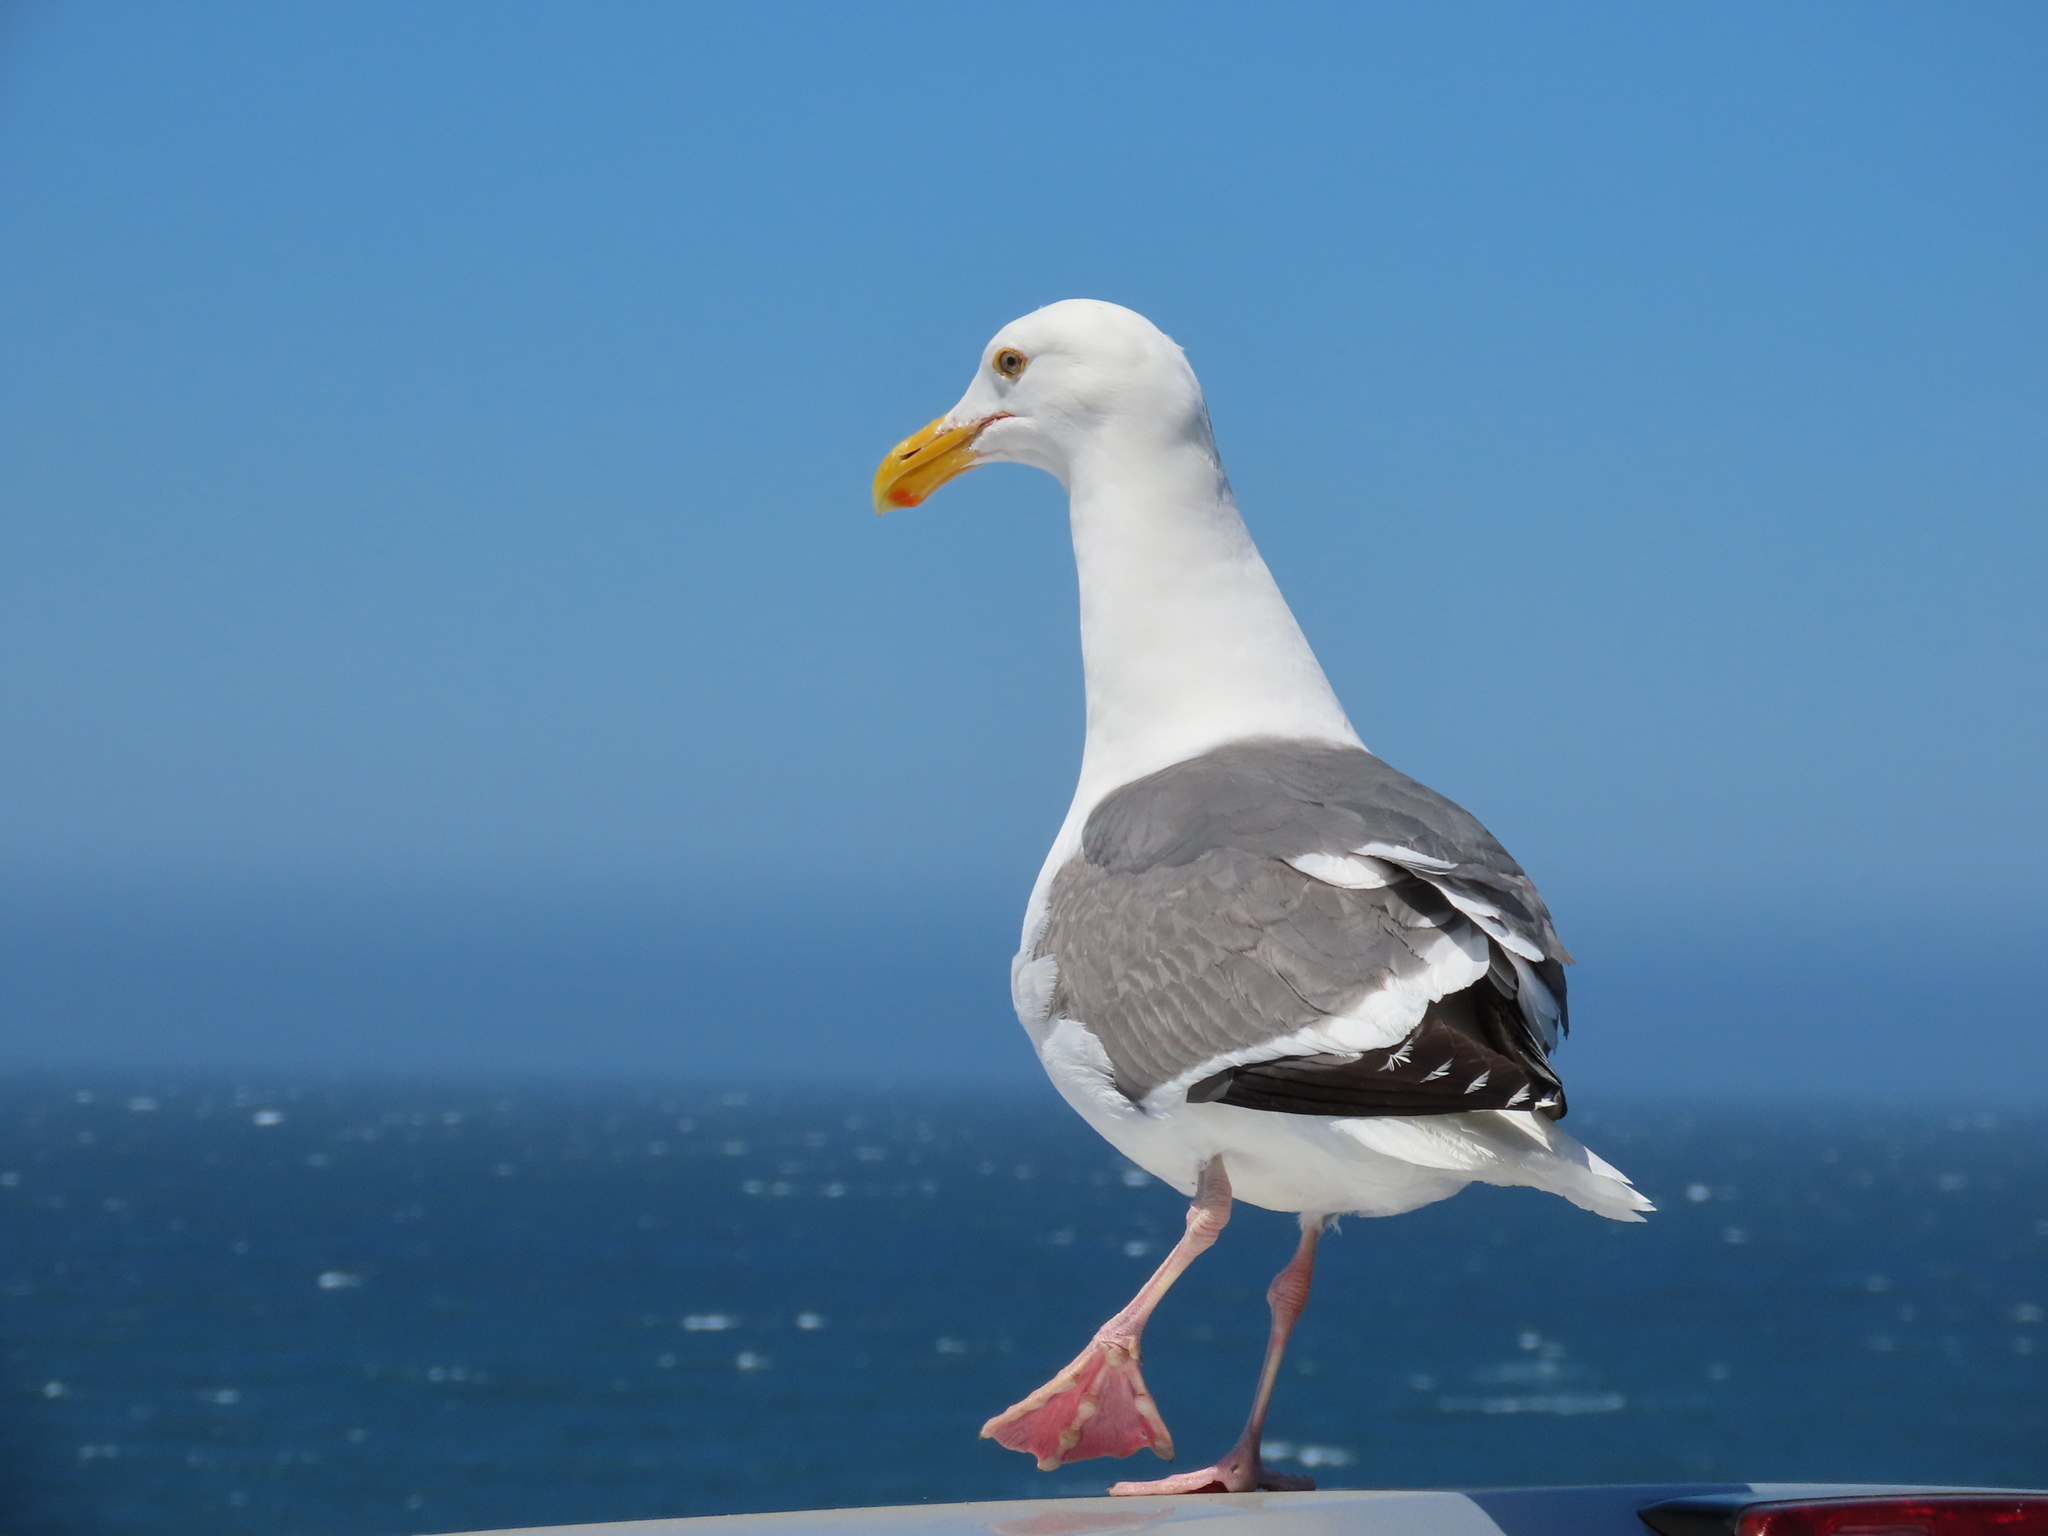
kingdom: Animalia
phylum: Chordata
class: Aves
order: Charadriiformes
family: Laridae
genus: Larus
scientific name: Larus occidentalis
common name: Western gull
